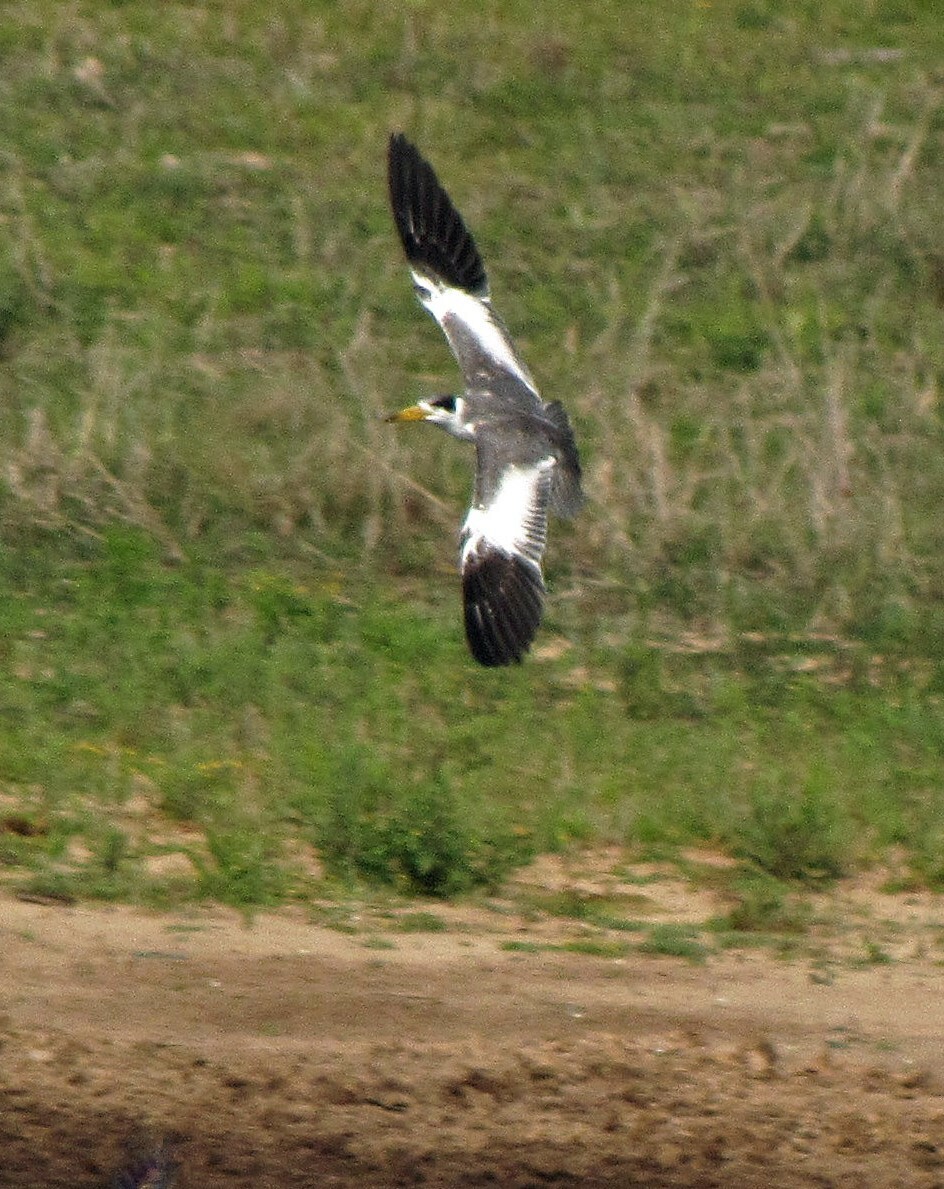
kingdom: Animalia
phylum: Chordata
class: Aves
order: Charadriiformes
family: Laridae
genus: Phaetusa
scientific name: Phaetusa simplex
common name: Large-billed tern
